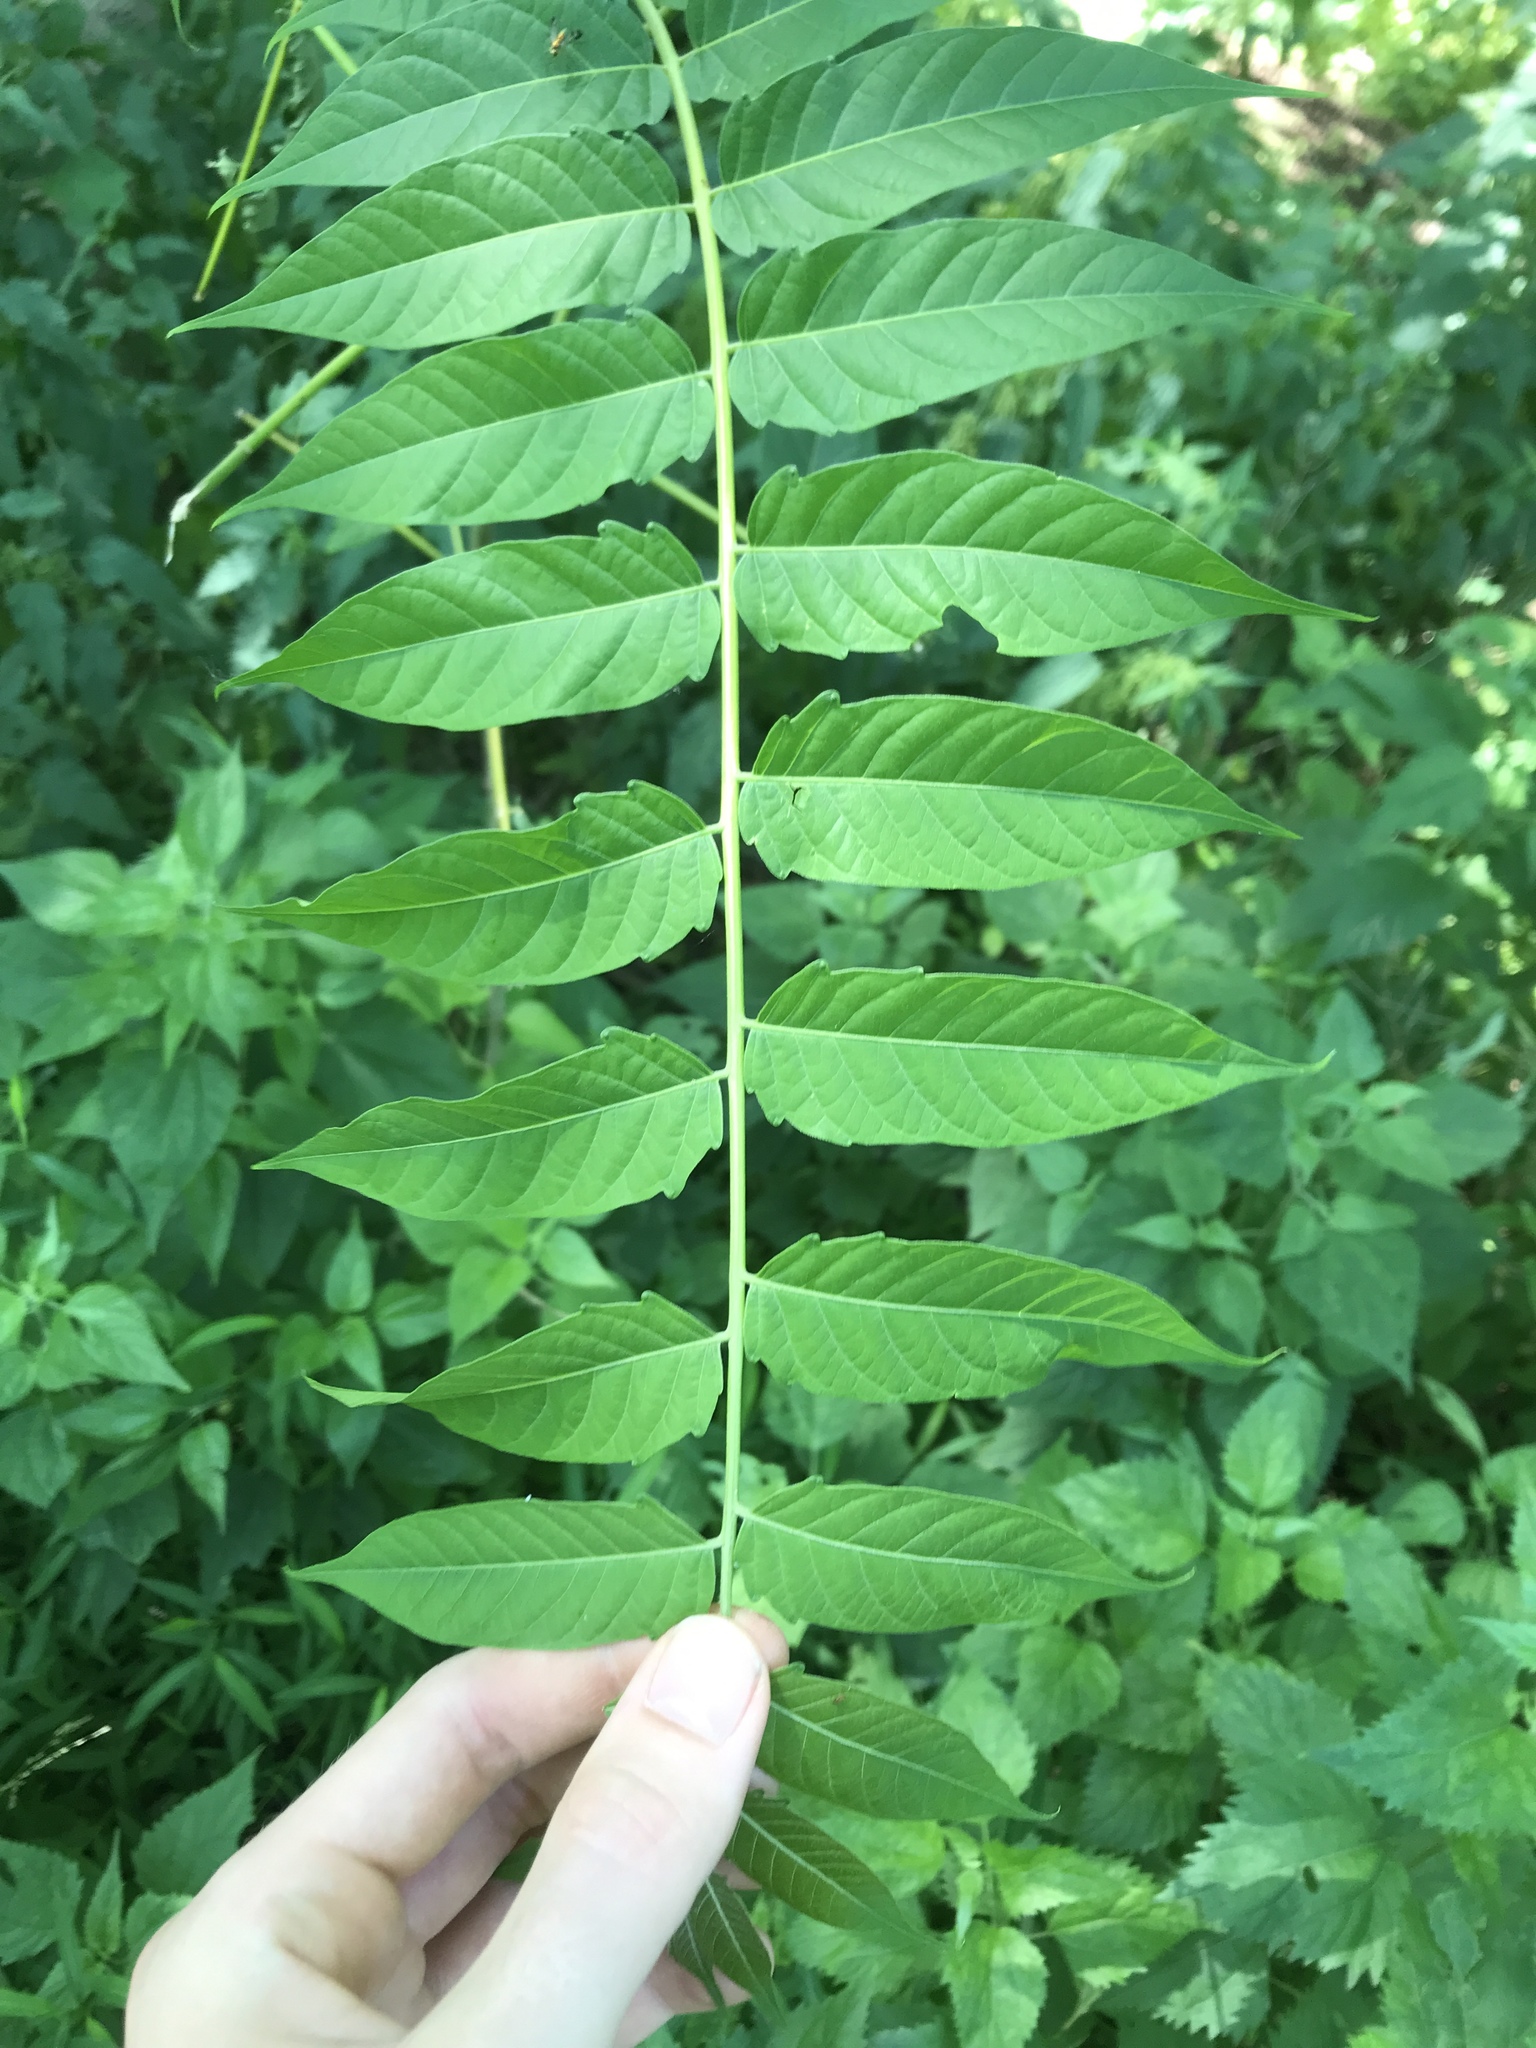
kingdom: Plantae
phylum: Tracheophyta
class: Magnoliopsida
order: Sapindales
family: Simaroubaceae
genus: Ailanthus
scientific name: Ailanthus altissima
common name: Tree-of-heaven
